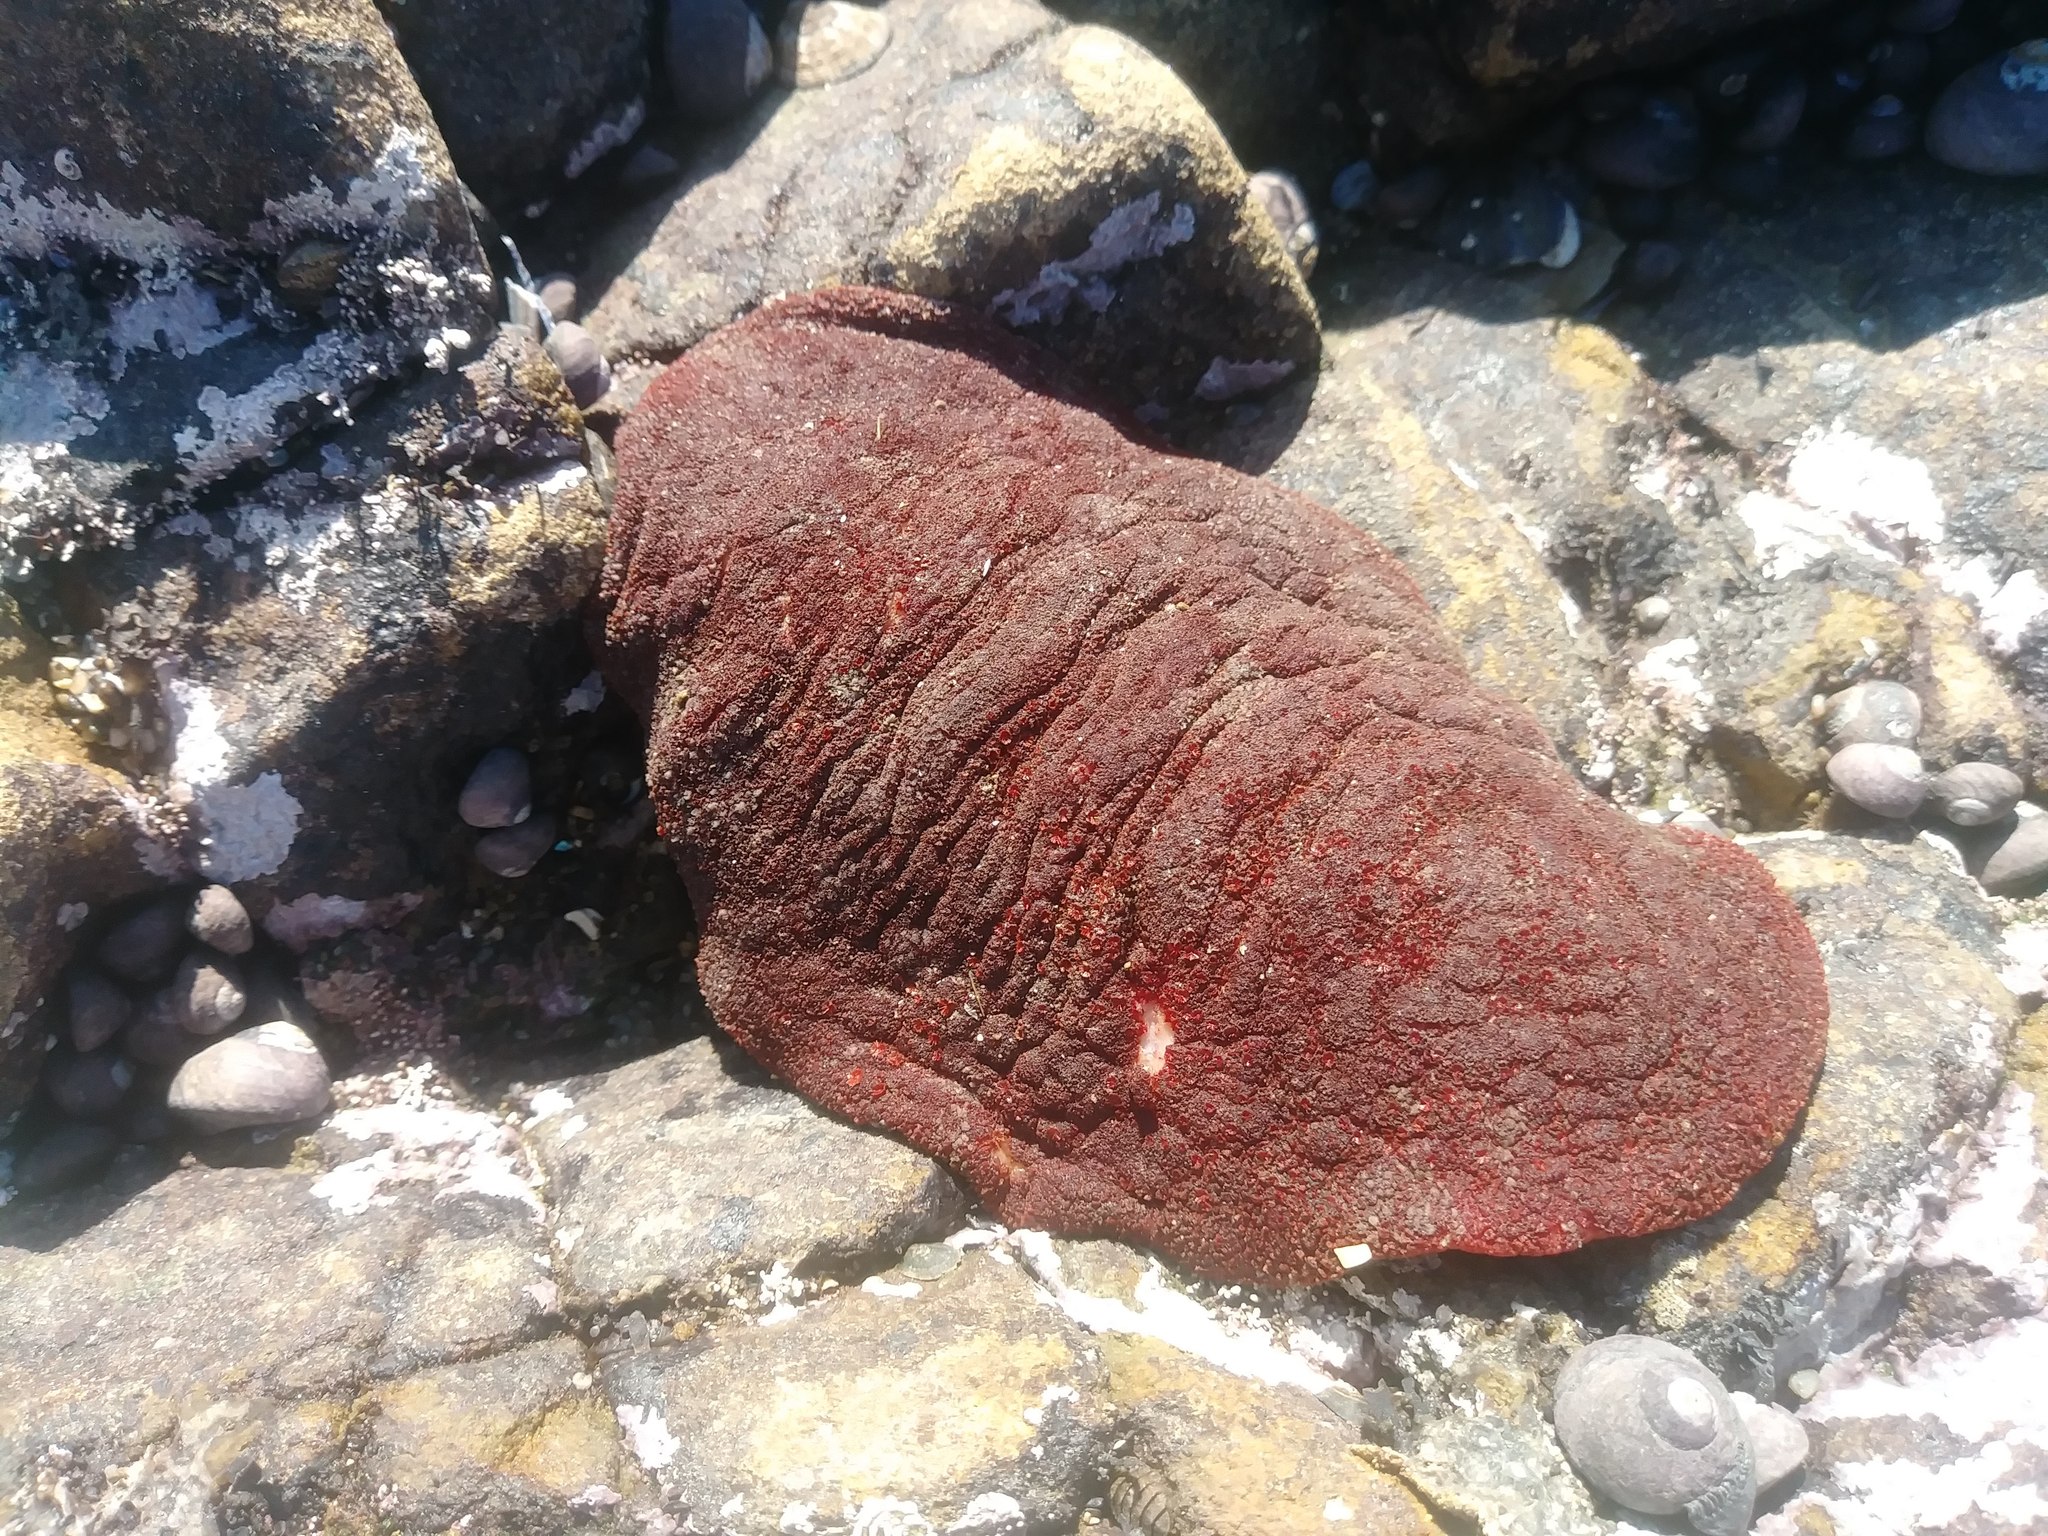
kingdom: Animalia
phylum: Mollusca
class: Polyplacophora
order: Chitonida
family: Acanthochitonidae
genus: Cryptochiton
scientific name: Cryptochiton stelleri
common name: Giant pacific chiton
